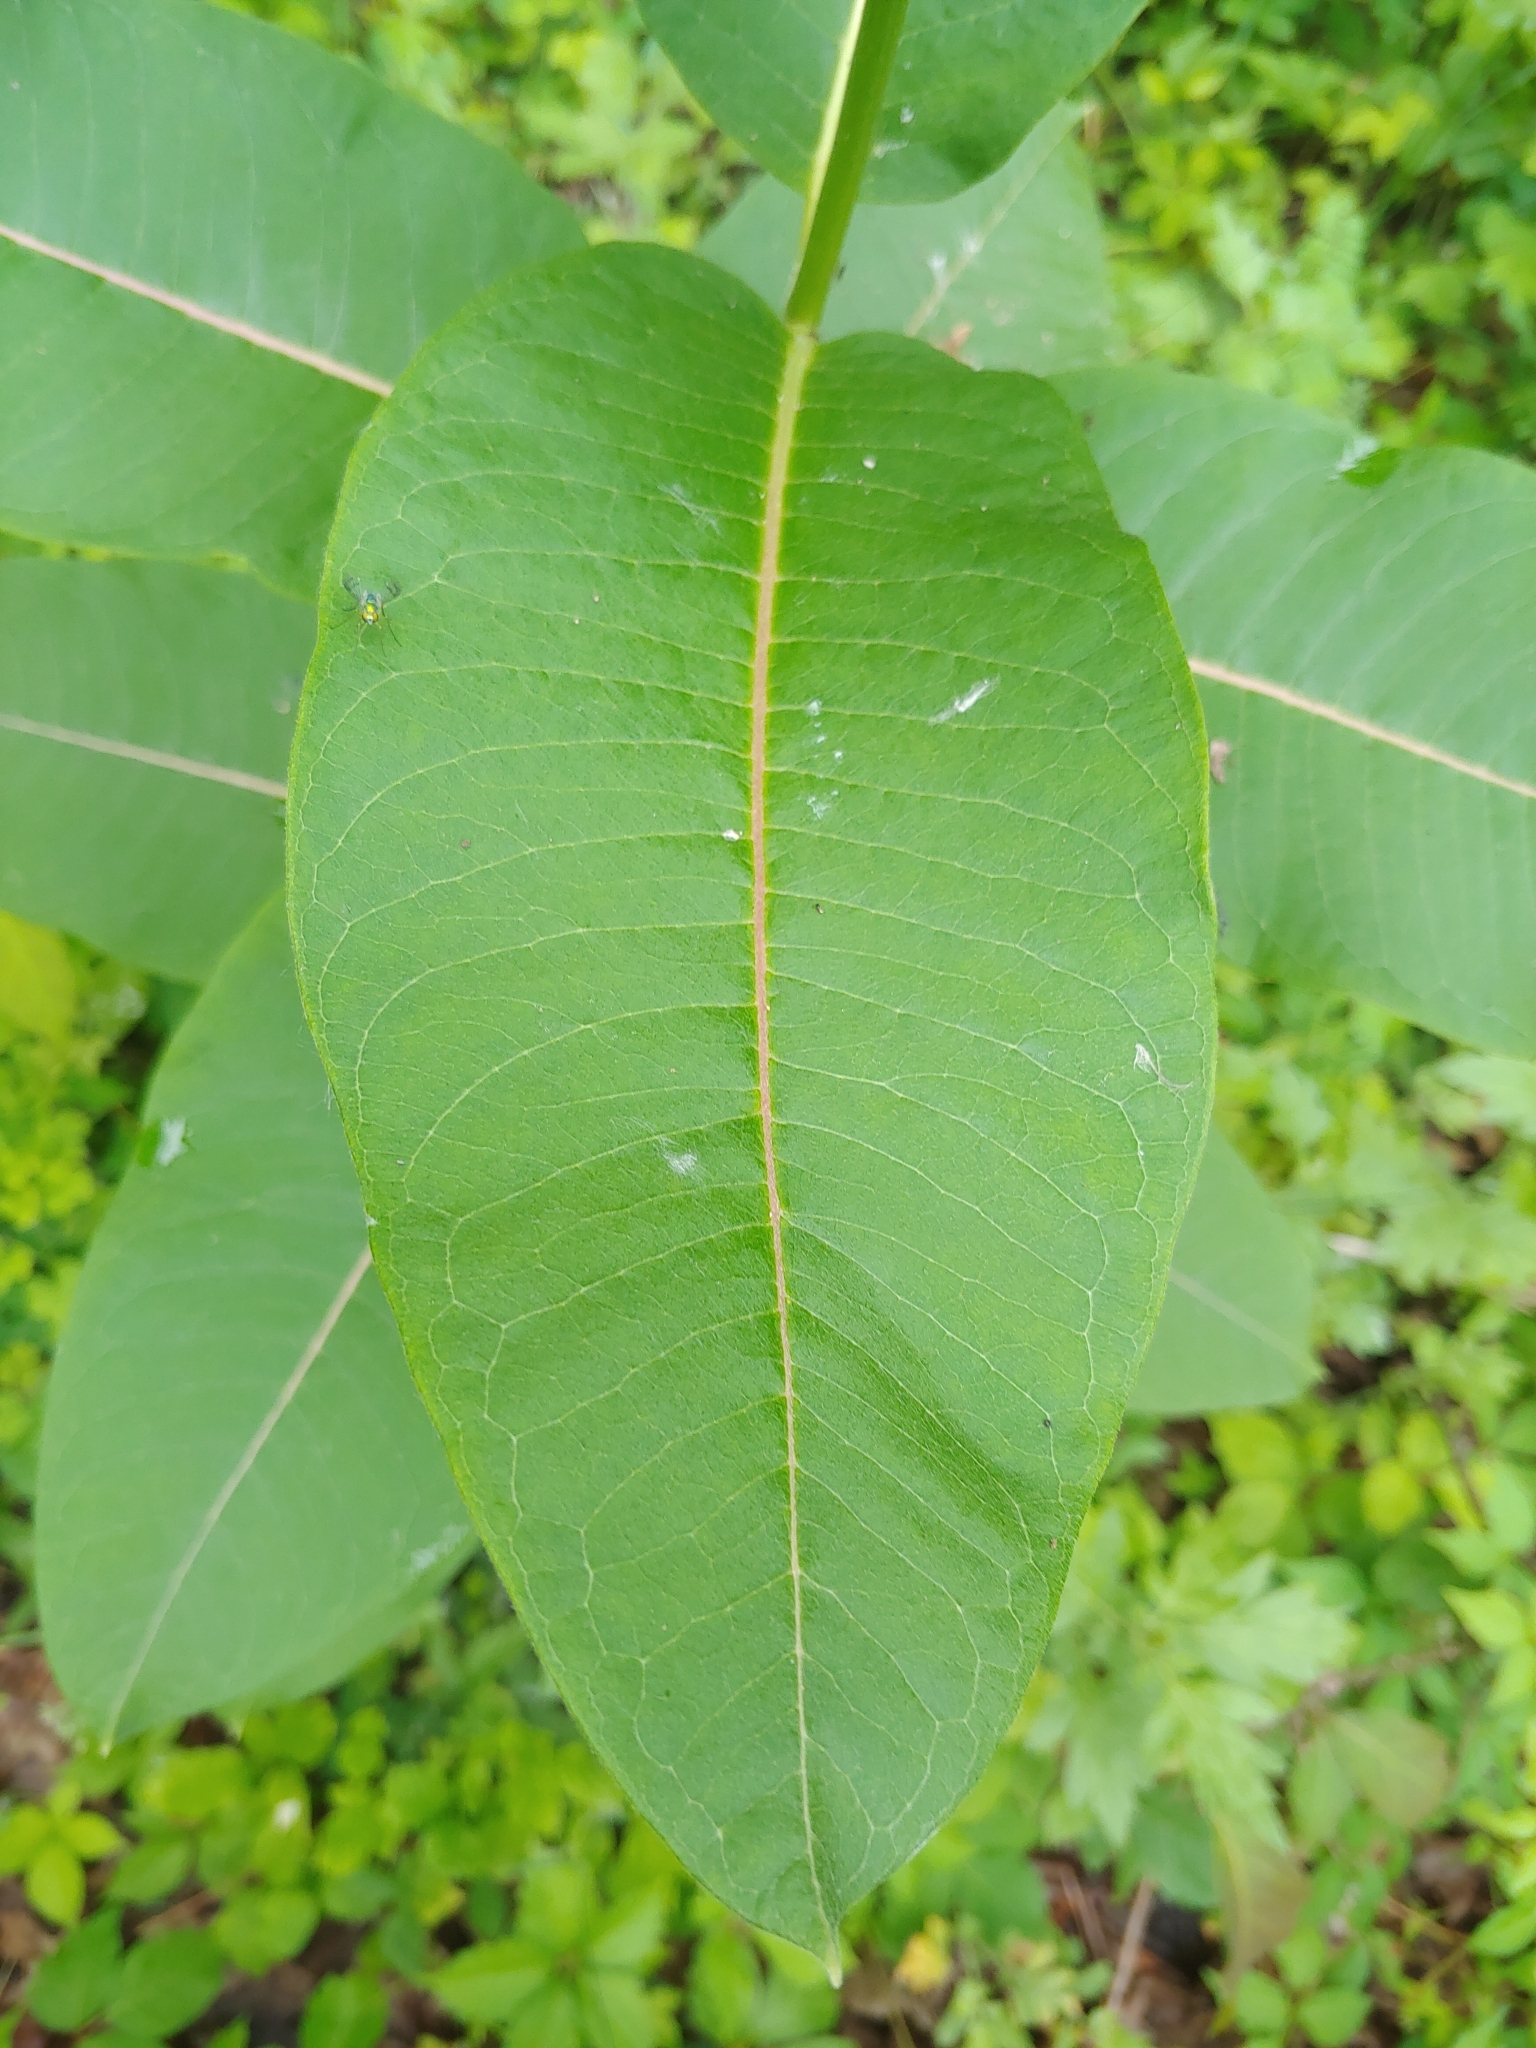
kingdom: Plantae
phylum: Tracheophyta
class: Magnoliopsida
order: Gentianales
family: Apocynaceae
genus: Asclepias
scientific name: Asclepias syriaca
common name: Common milkweed
